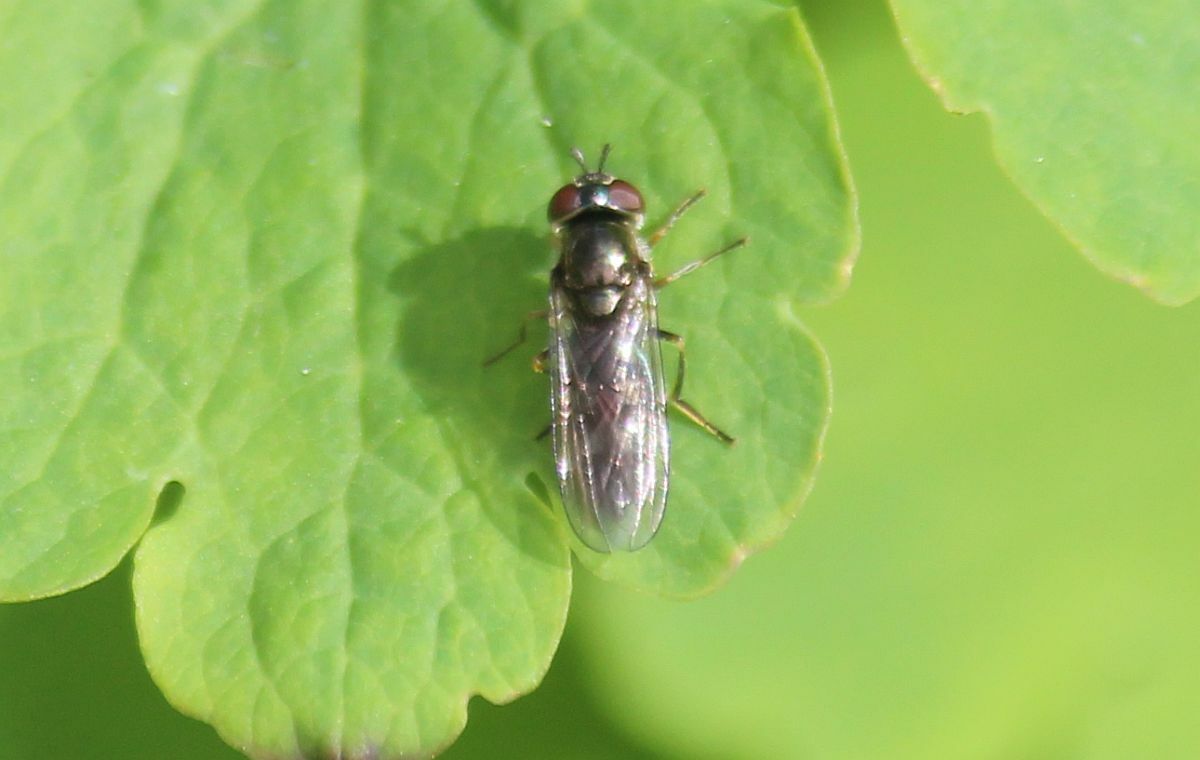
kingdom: Animalia
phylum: Arthropoda
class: Insecta
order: Diptera
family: Syrphidae
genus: Platycheirus
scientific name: Platycheirus albimanus
